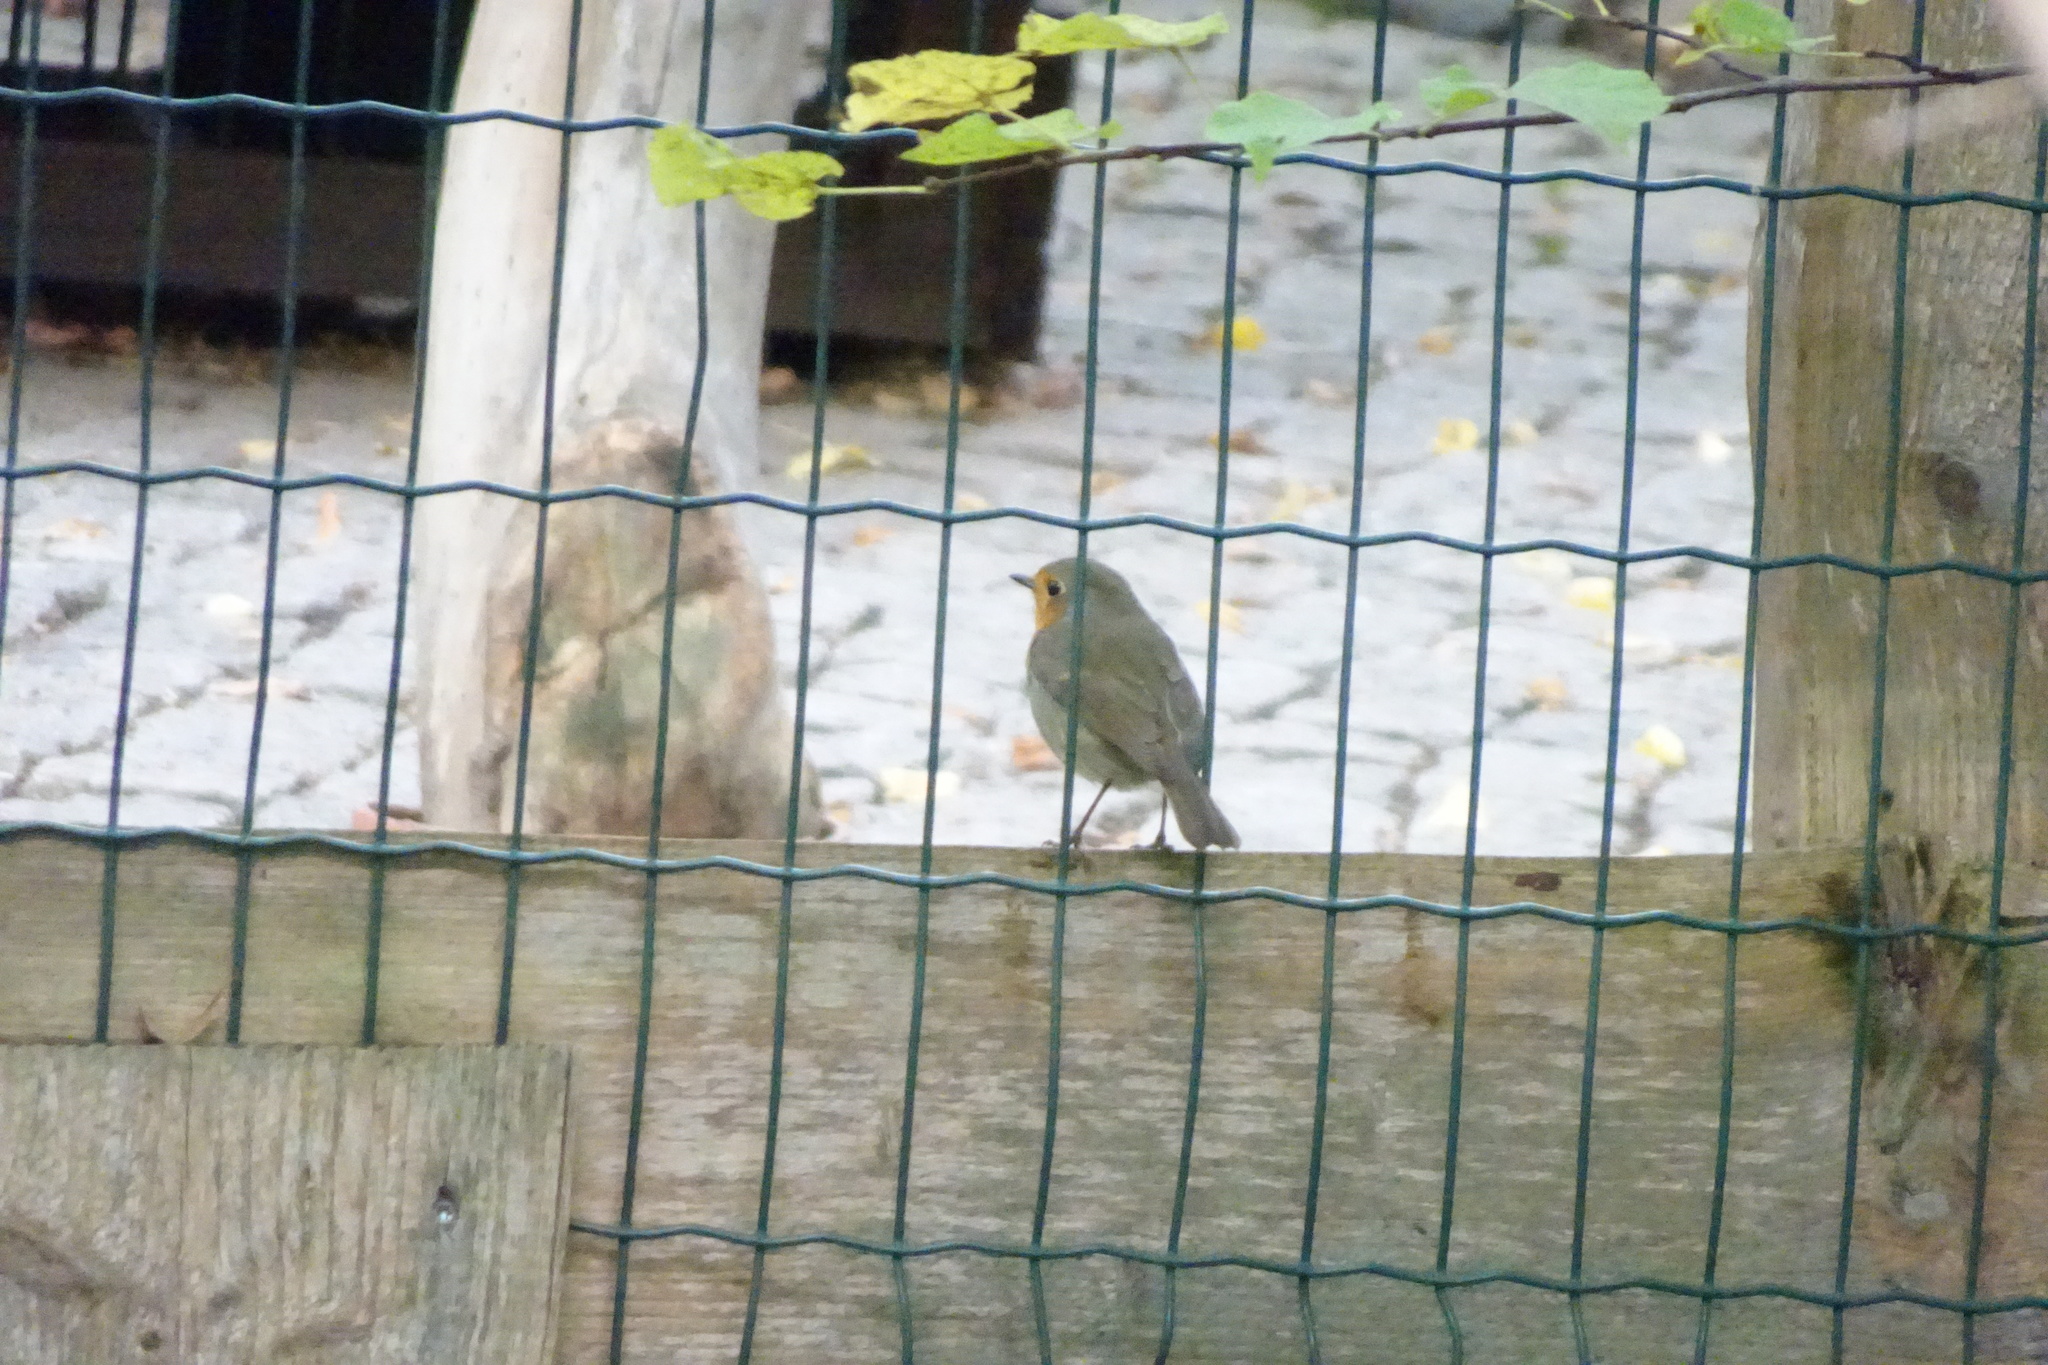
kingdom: Animalia
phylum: Chordata
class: Aves
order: Passeriformes
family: Muscicapidae
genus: Erithacus
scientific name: Erithacus rubecula
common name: European robin
